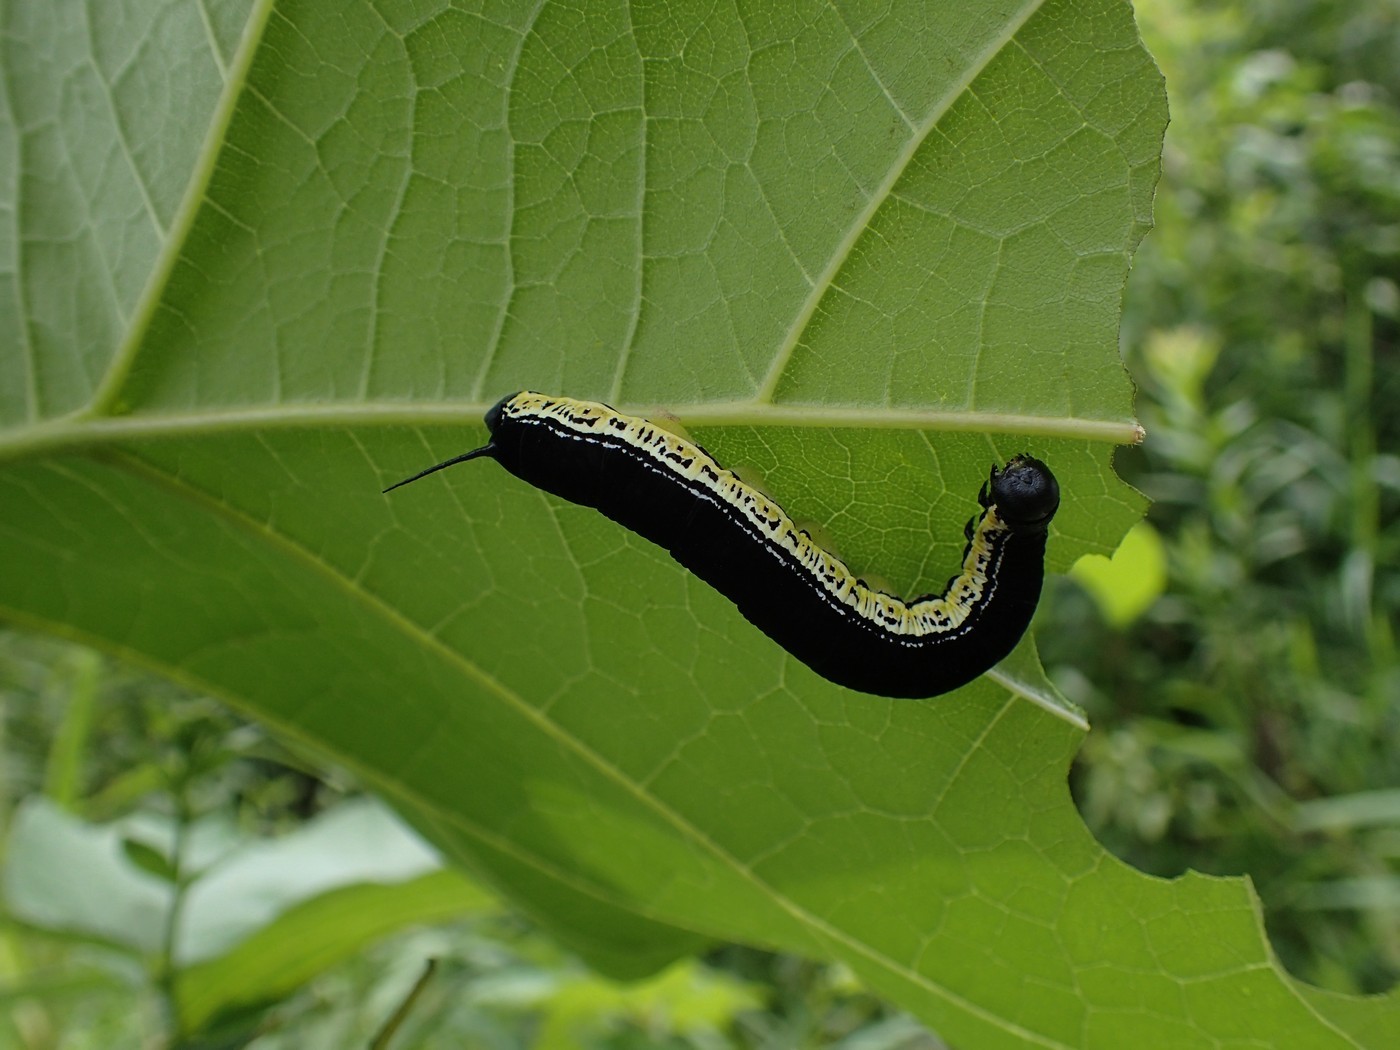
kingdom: Animalia
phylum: Arthropoda
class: Insecta
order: Lepidoptera
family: Sphingidae
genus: Ceratomia
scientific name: Ceratomia catalpae
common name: Catalpa hornworm
